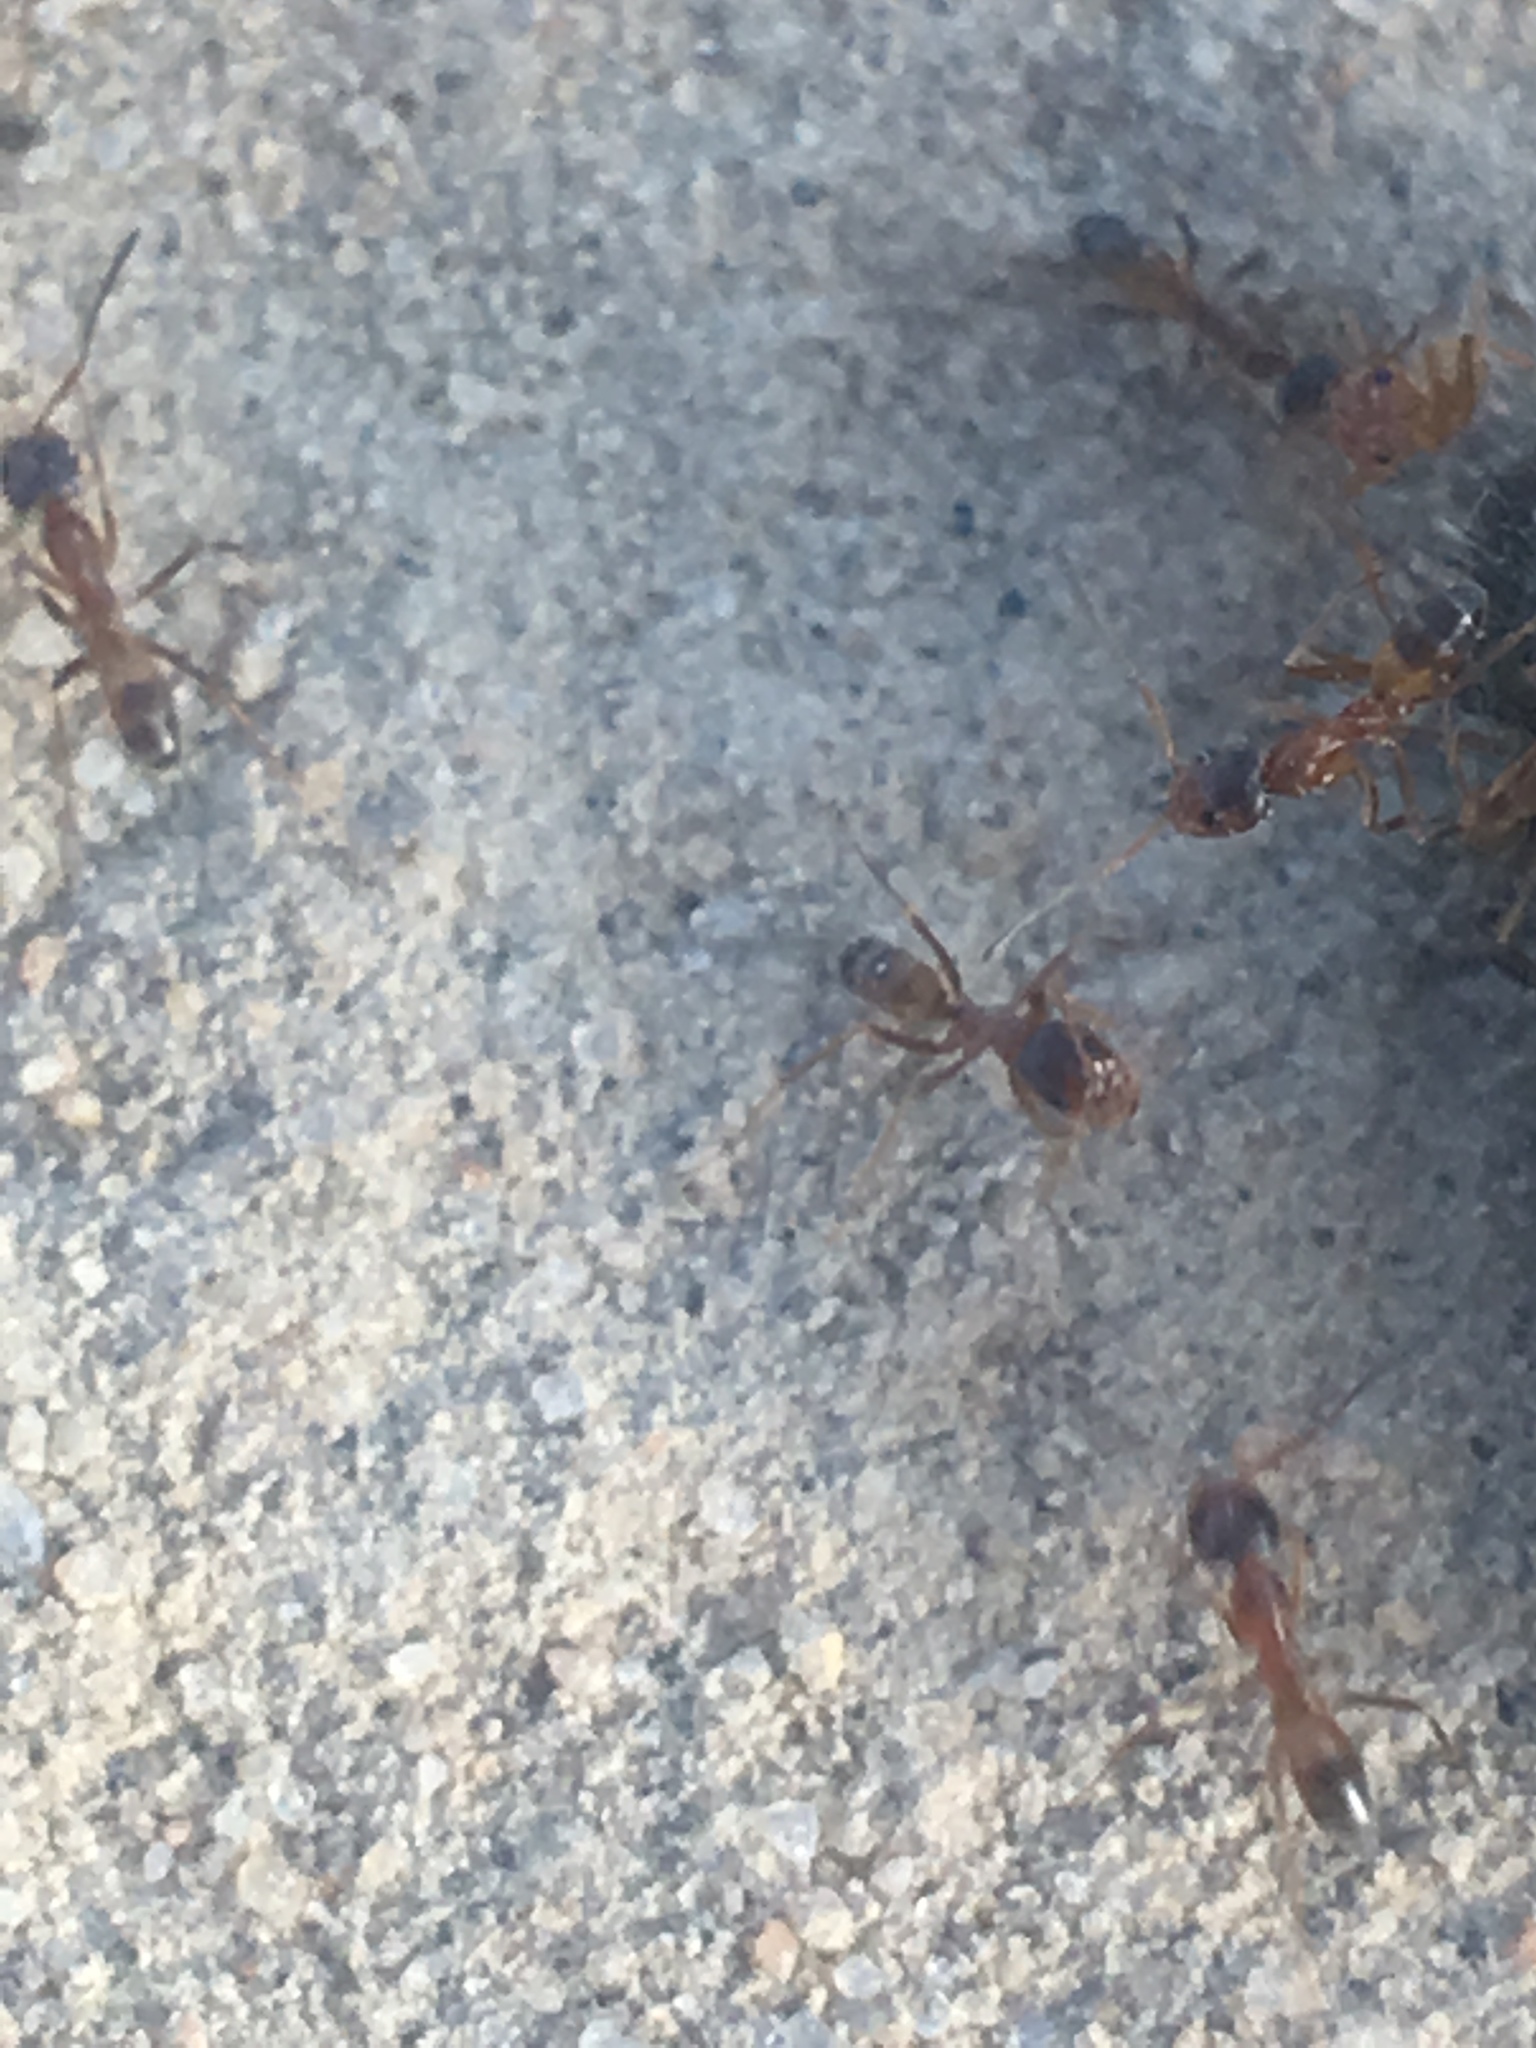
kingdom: Animalia
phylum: Arthropoda
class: Insecta
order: Hymenoptera
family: Formicidae
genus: Dorymyrmex
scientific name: Dorymyrmex bureni
